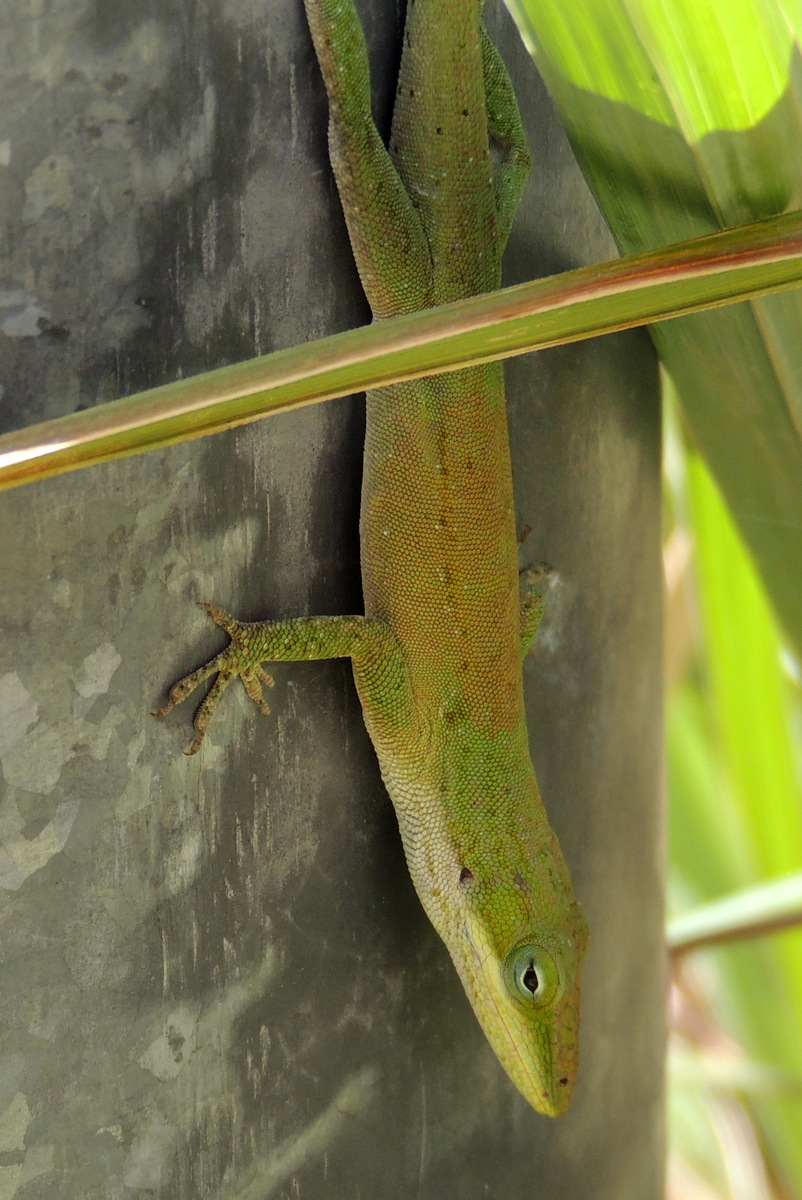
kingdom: Animalia
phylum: Chordata
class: Squamata
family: Dactyloidae
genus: Anolis
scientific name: Anolis carolinensis
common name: Green anole
